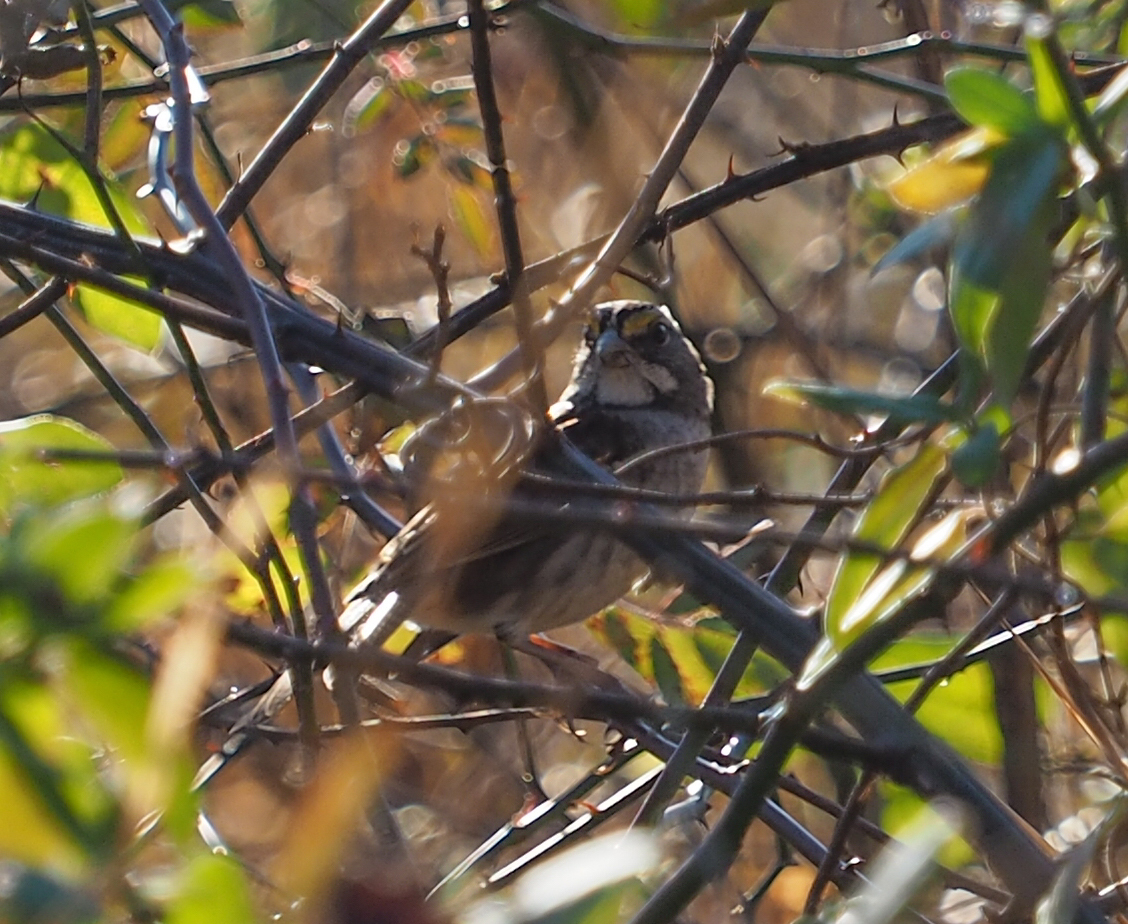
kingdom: Animalia
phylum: Chordata
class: Aves
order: Passeriformes
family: Passerellidae
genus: Zonotrichia
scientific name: Zonotrichia albicollis
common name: White-throated sparrow
